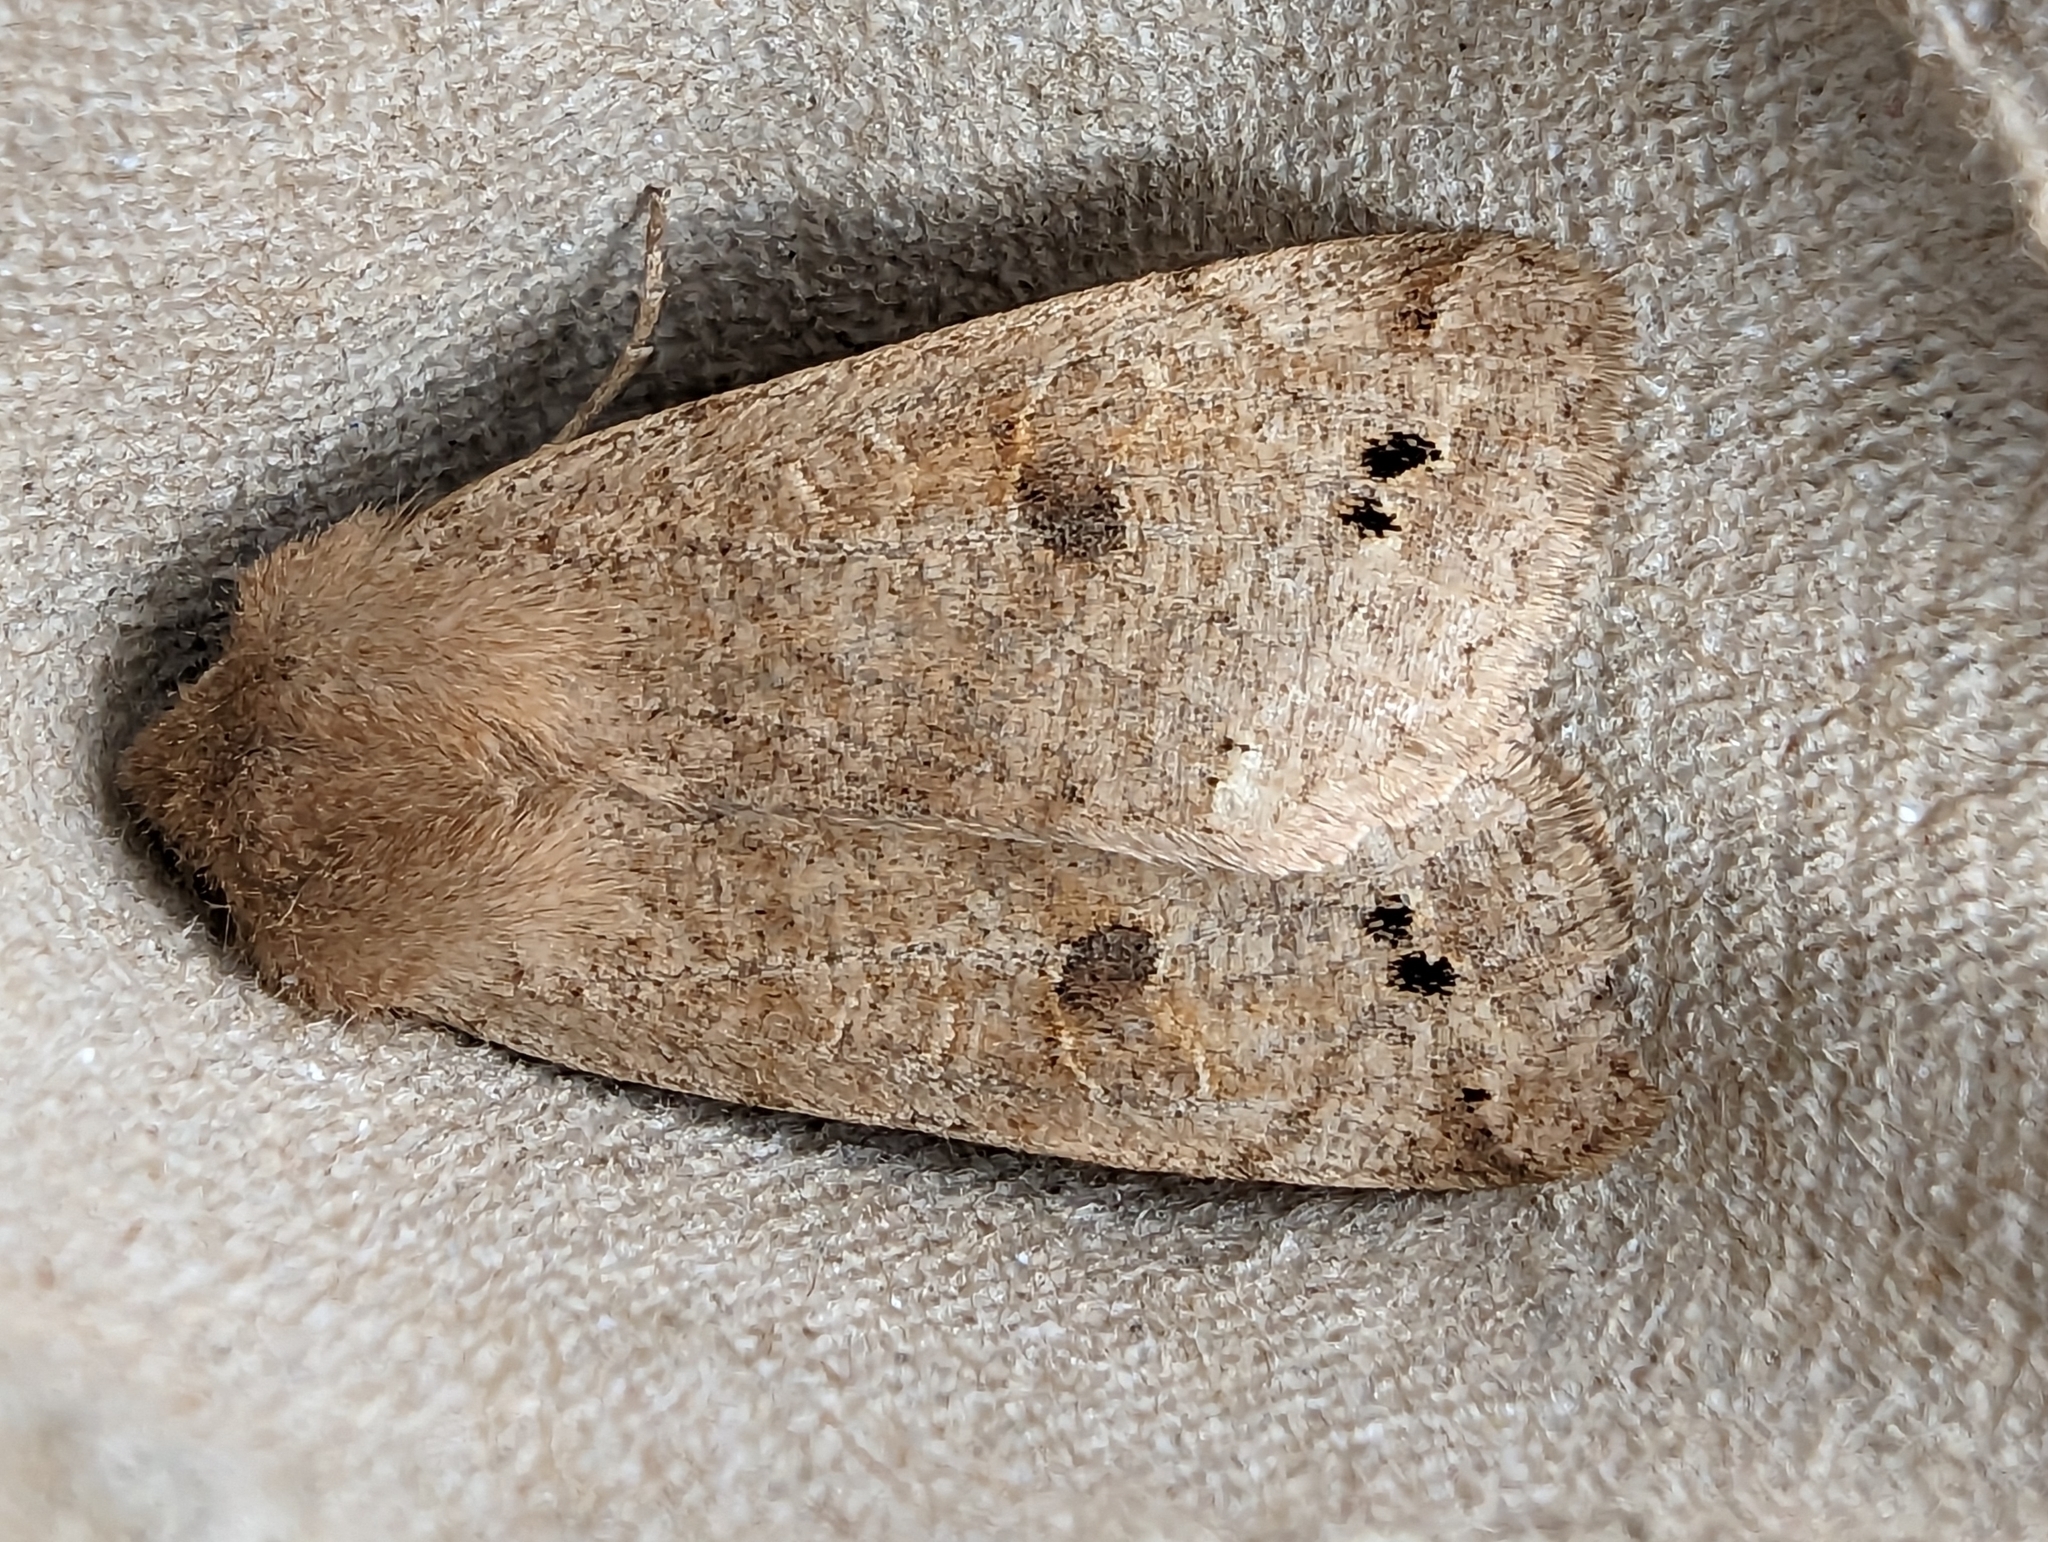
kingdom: Animalia
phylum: Arthropoda
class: Insecta
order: Lepidoptera
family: Noctuidae
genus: Anorthoa
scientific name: Anorthoa munda
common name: Twin-spotted quaker
